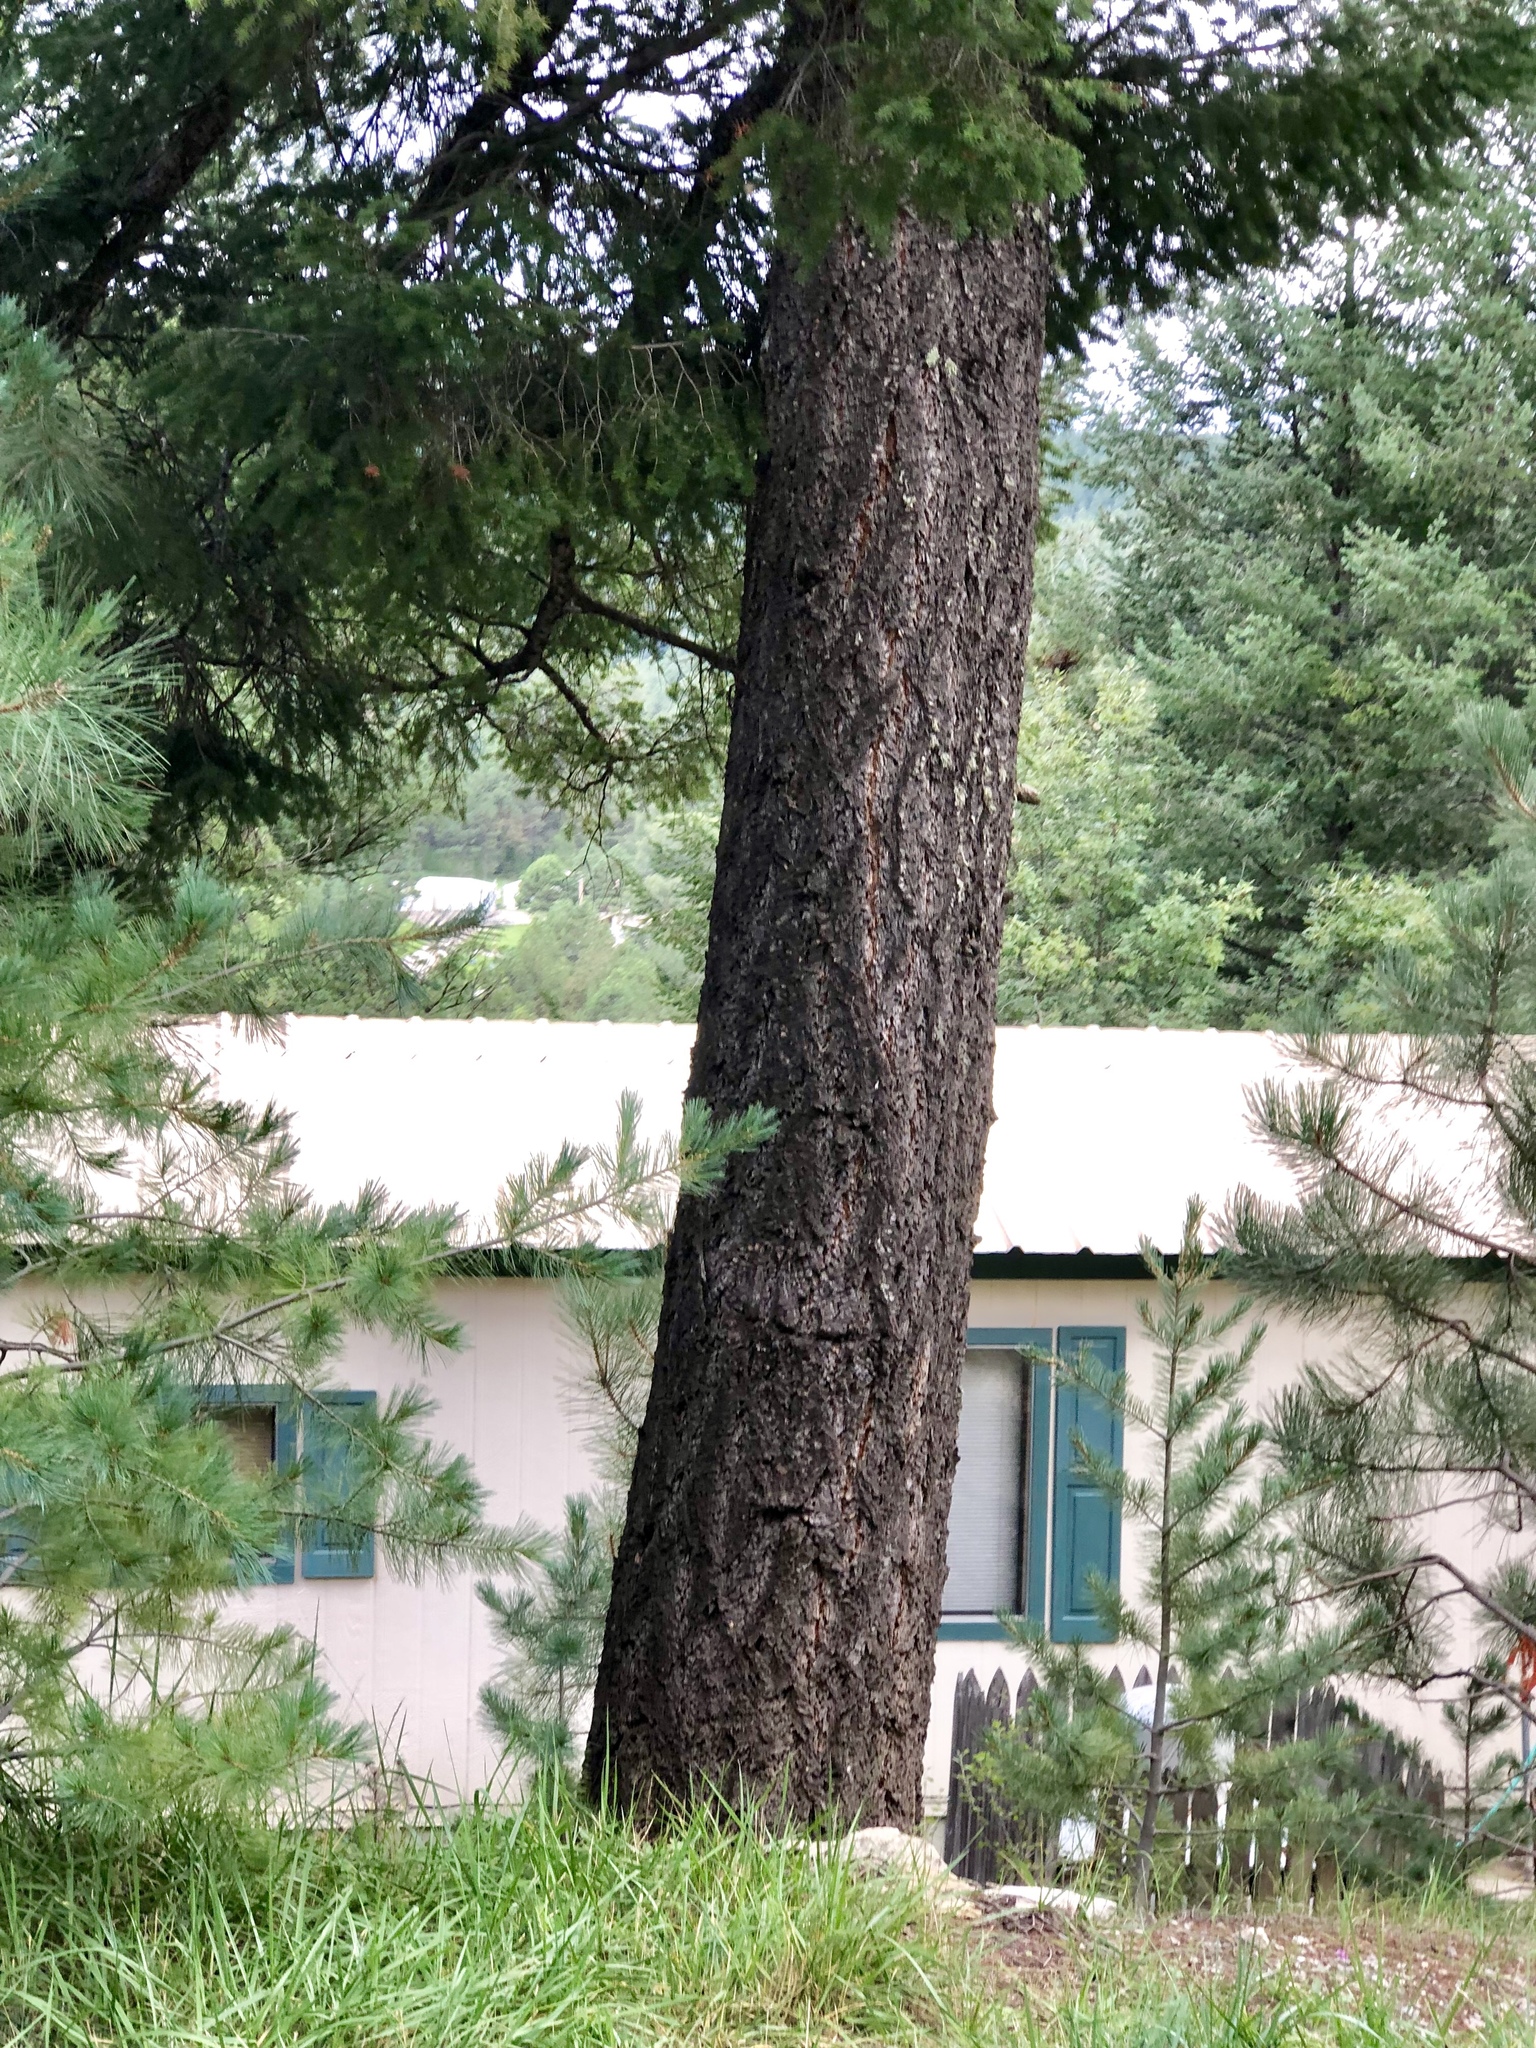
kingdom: Plantae
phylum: Tracheophyta
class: Pinopsida
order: Pinales
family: Pinaceae
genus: Pseudotsuga
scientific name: Pseudotsuga menziesii
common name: Douglas fir
